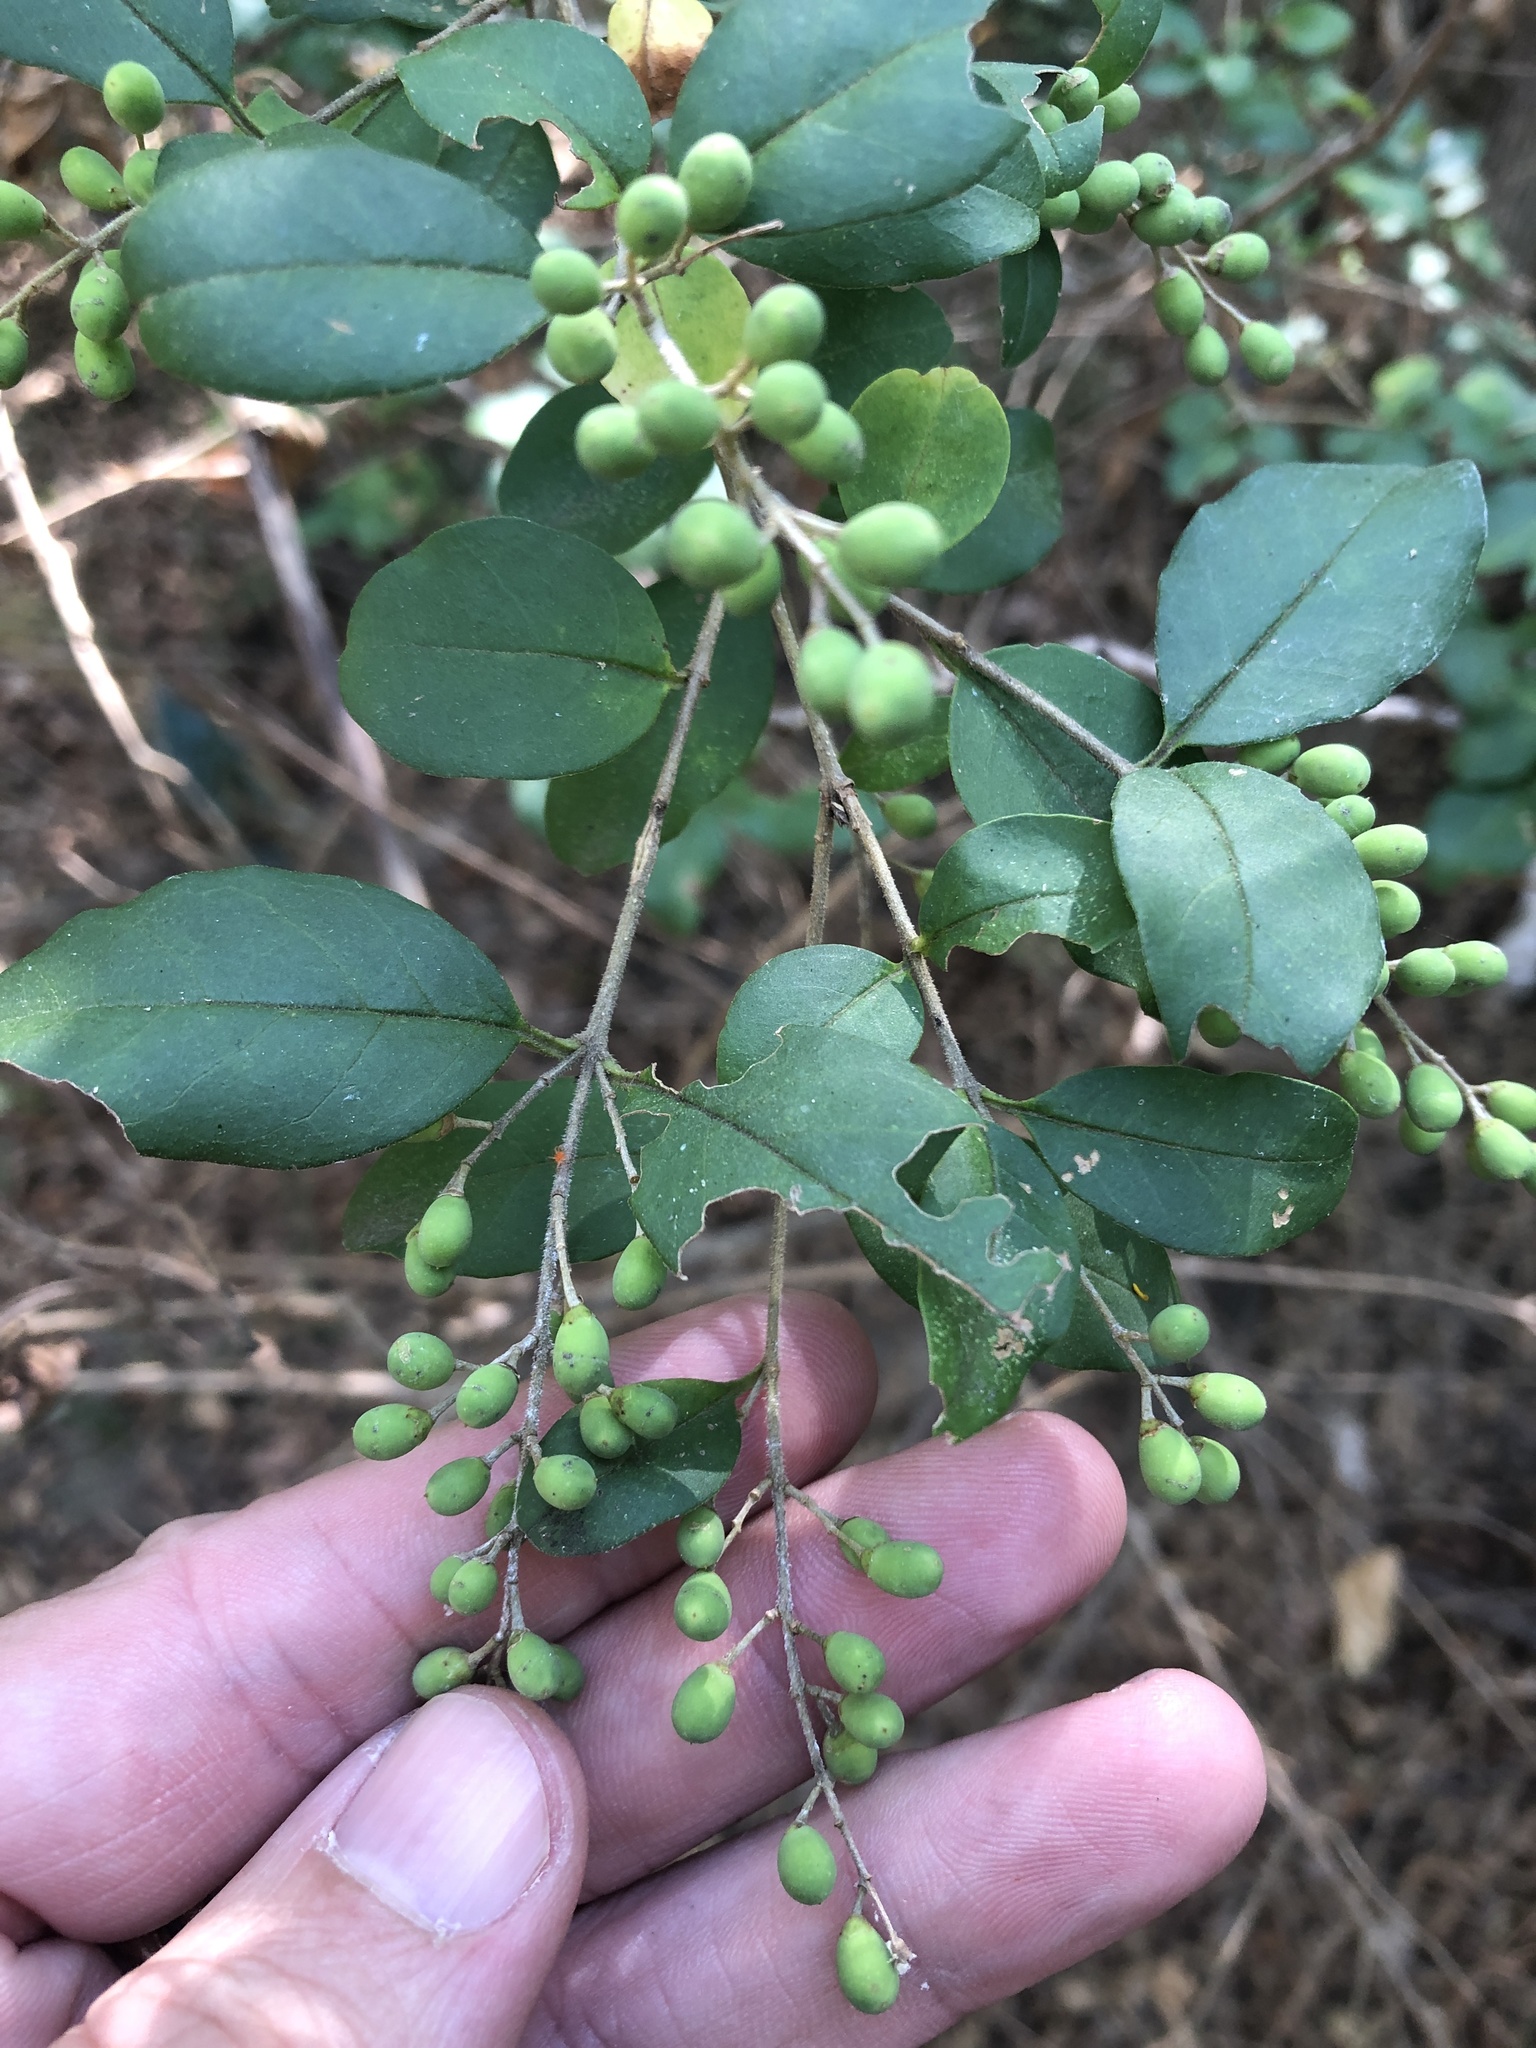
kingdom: Plantae
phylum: Tracheophyta
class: Magnoliopsida
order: Lamiales
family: Oleaceae
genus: Ligustrum
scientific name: Ligustrum sinense
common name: Chinese privet
